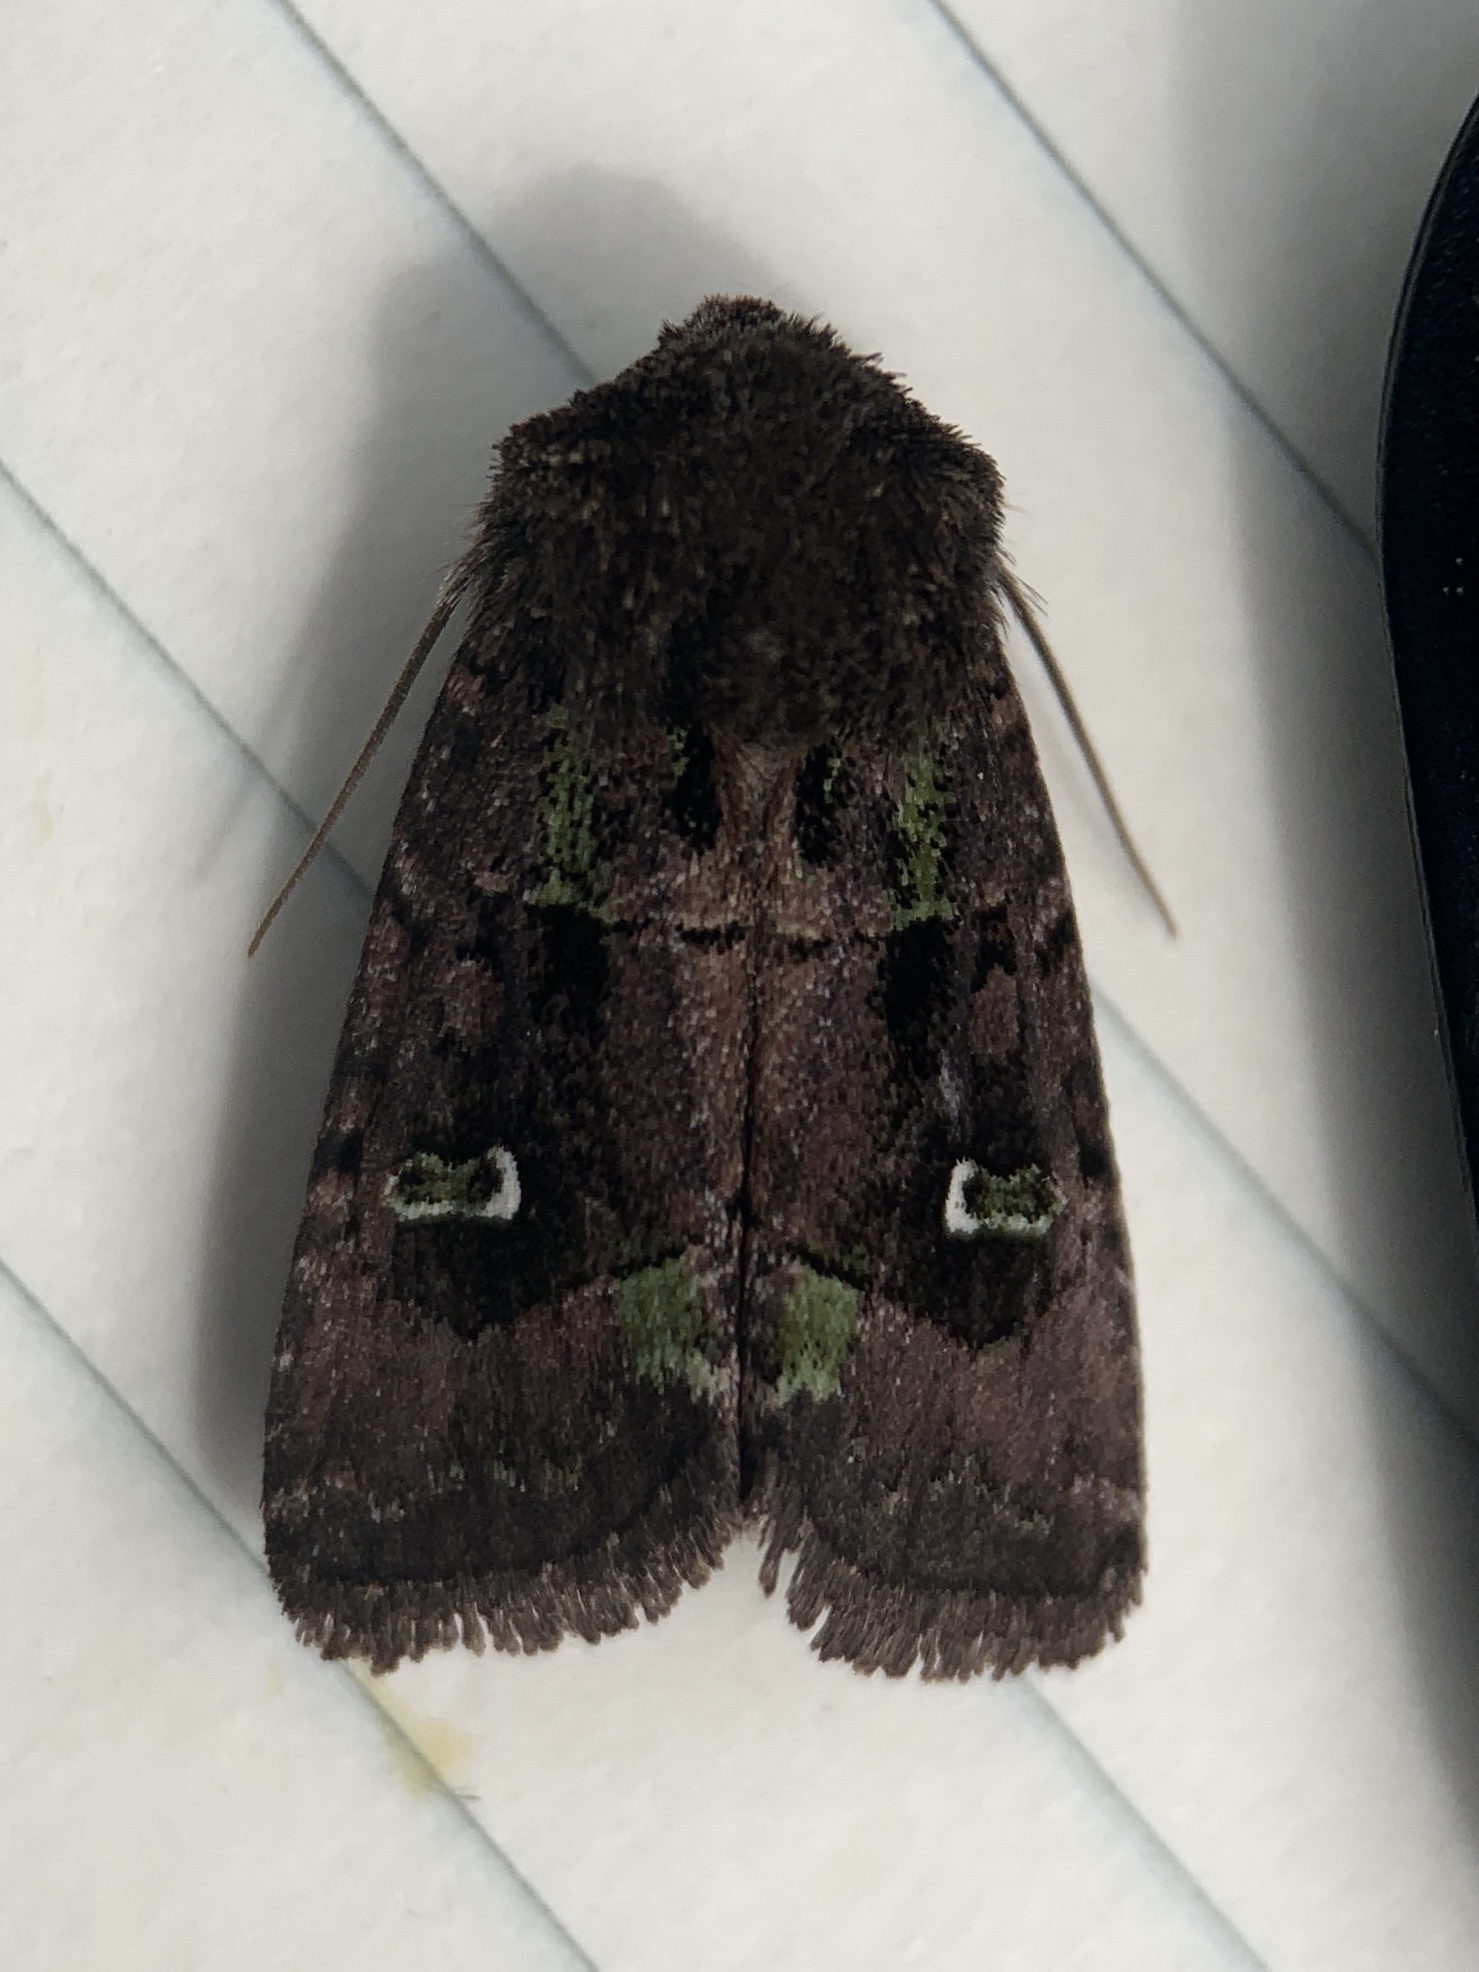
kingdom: Animalia
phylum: Arthropoda
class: Insecta
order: Lepidoptera
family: Noctuidae
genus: Lacinipolia
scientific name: Lacinipolia renigera
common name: Kidney-spotted minor
